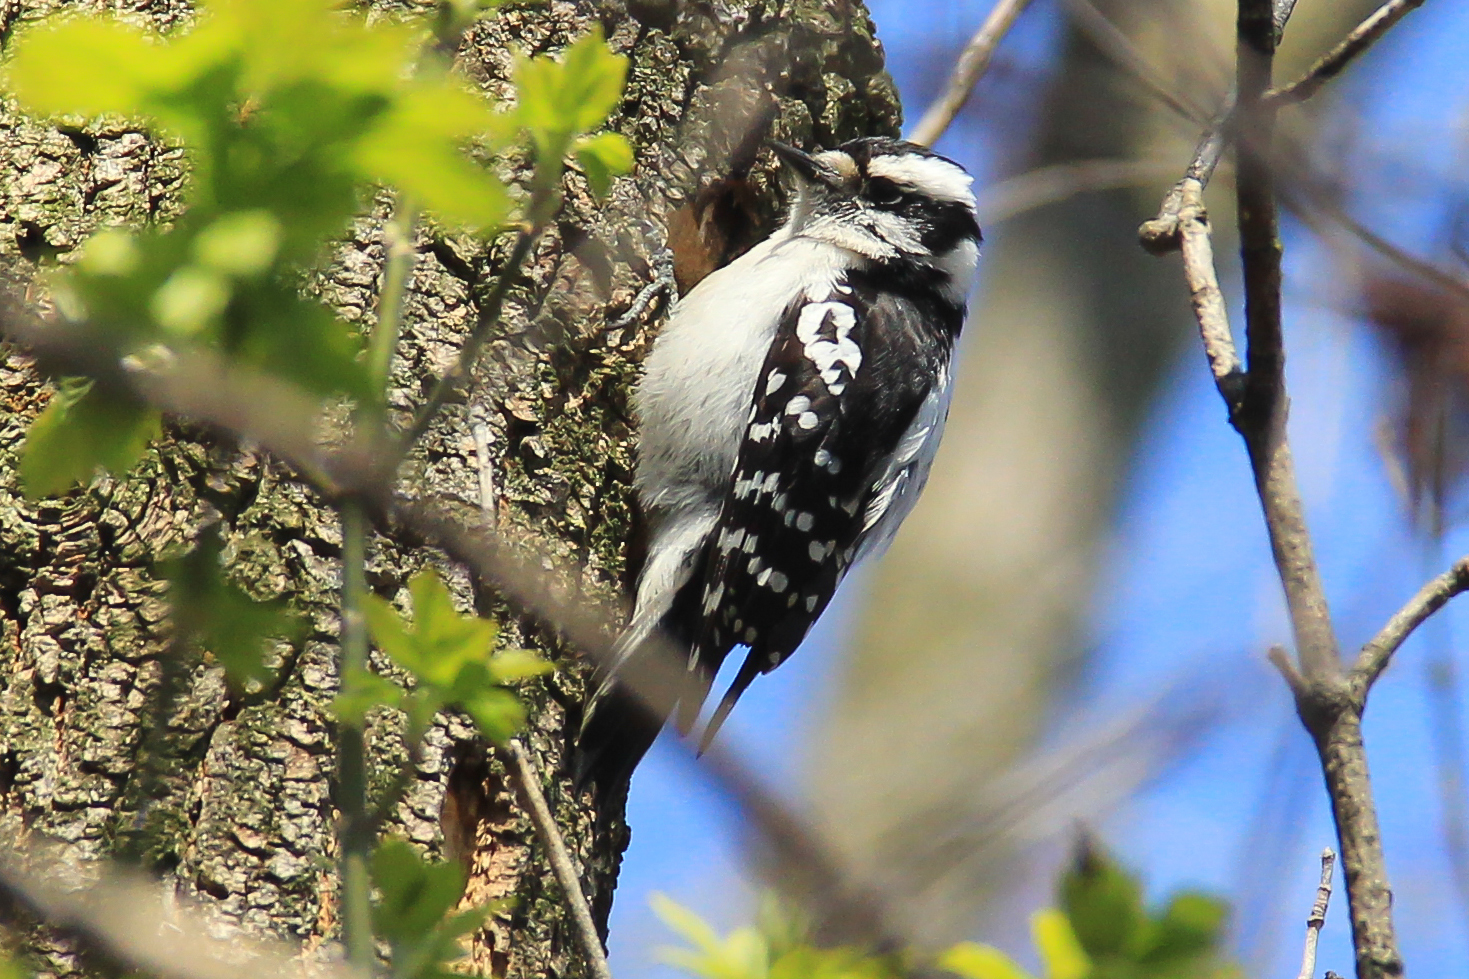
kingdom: Animalia
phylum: Chordata
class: Aves
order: Piciformes
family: Picidae
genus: Dryobates
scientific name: Dryobates pubescens
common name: Downy woodpecker
